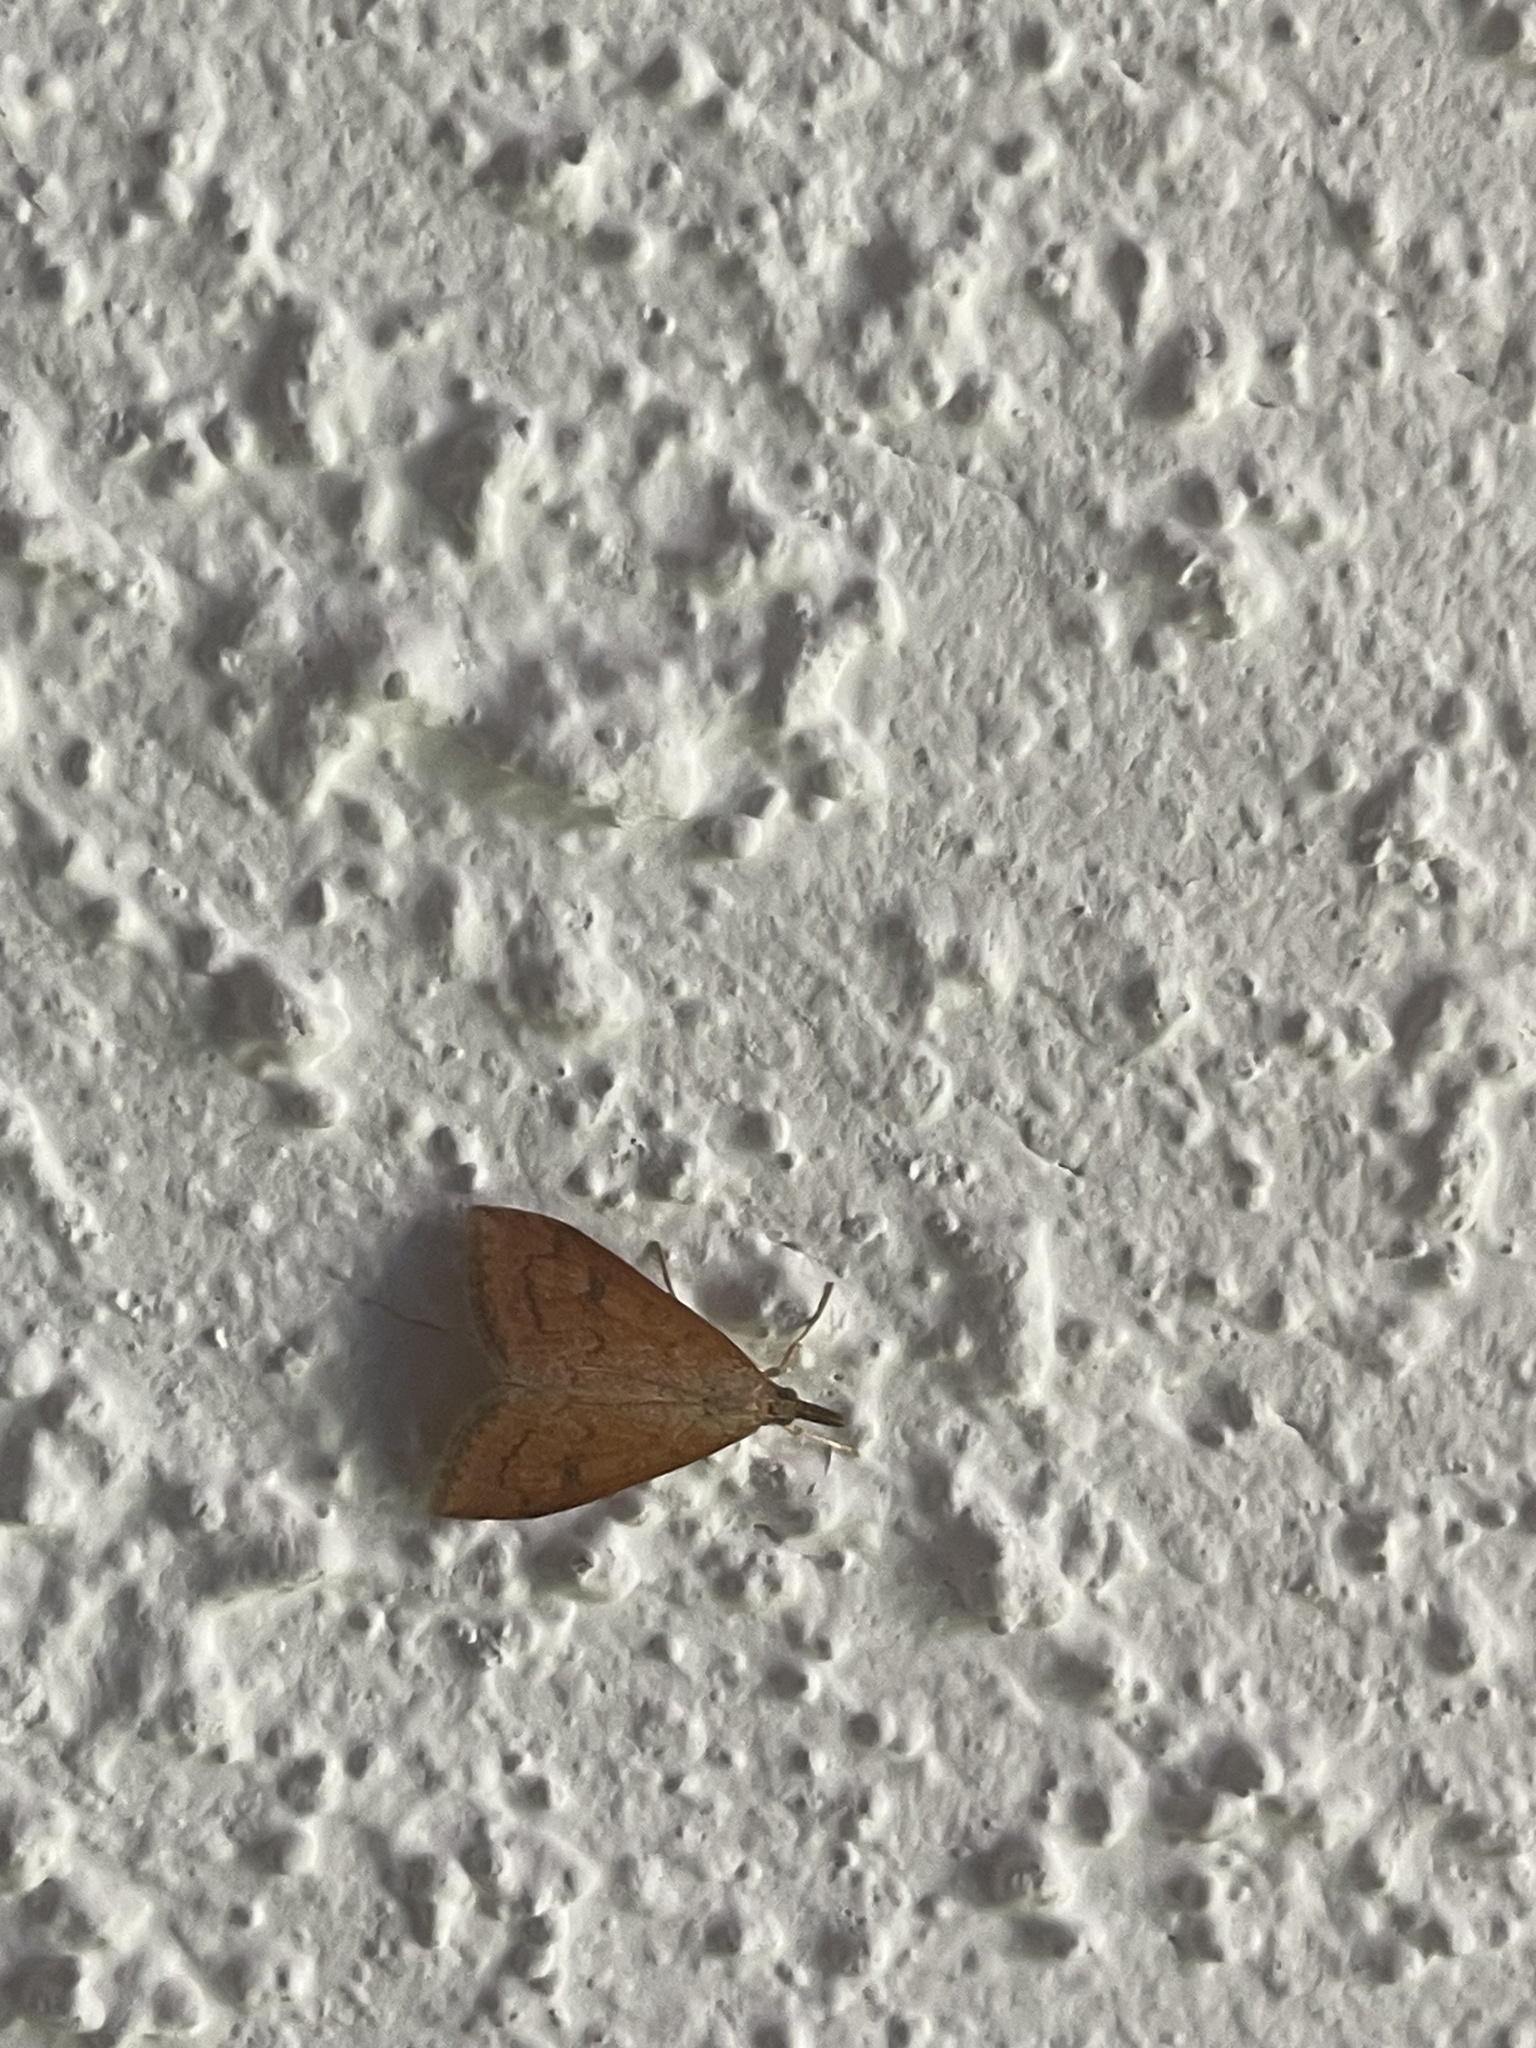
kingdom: Animalia
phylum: Arthropoda
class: Insecta
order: Lepidoptera
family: Crambidae
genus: Udea
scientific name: Udea profundalis
